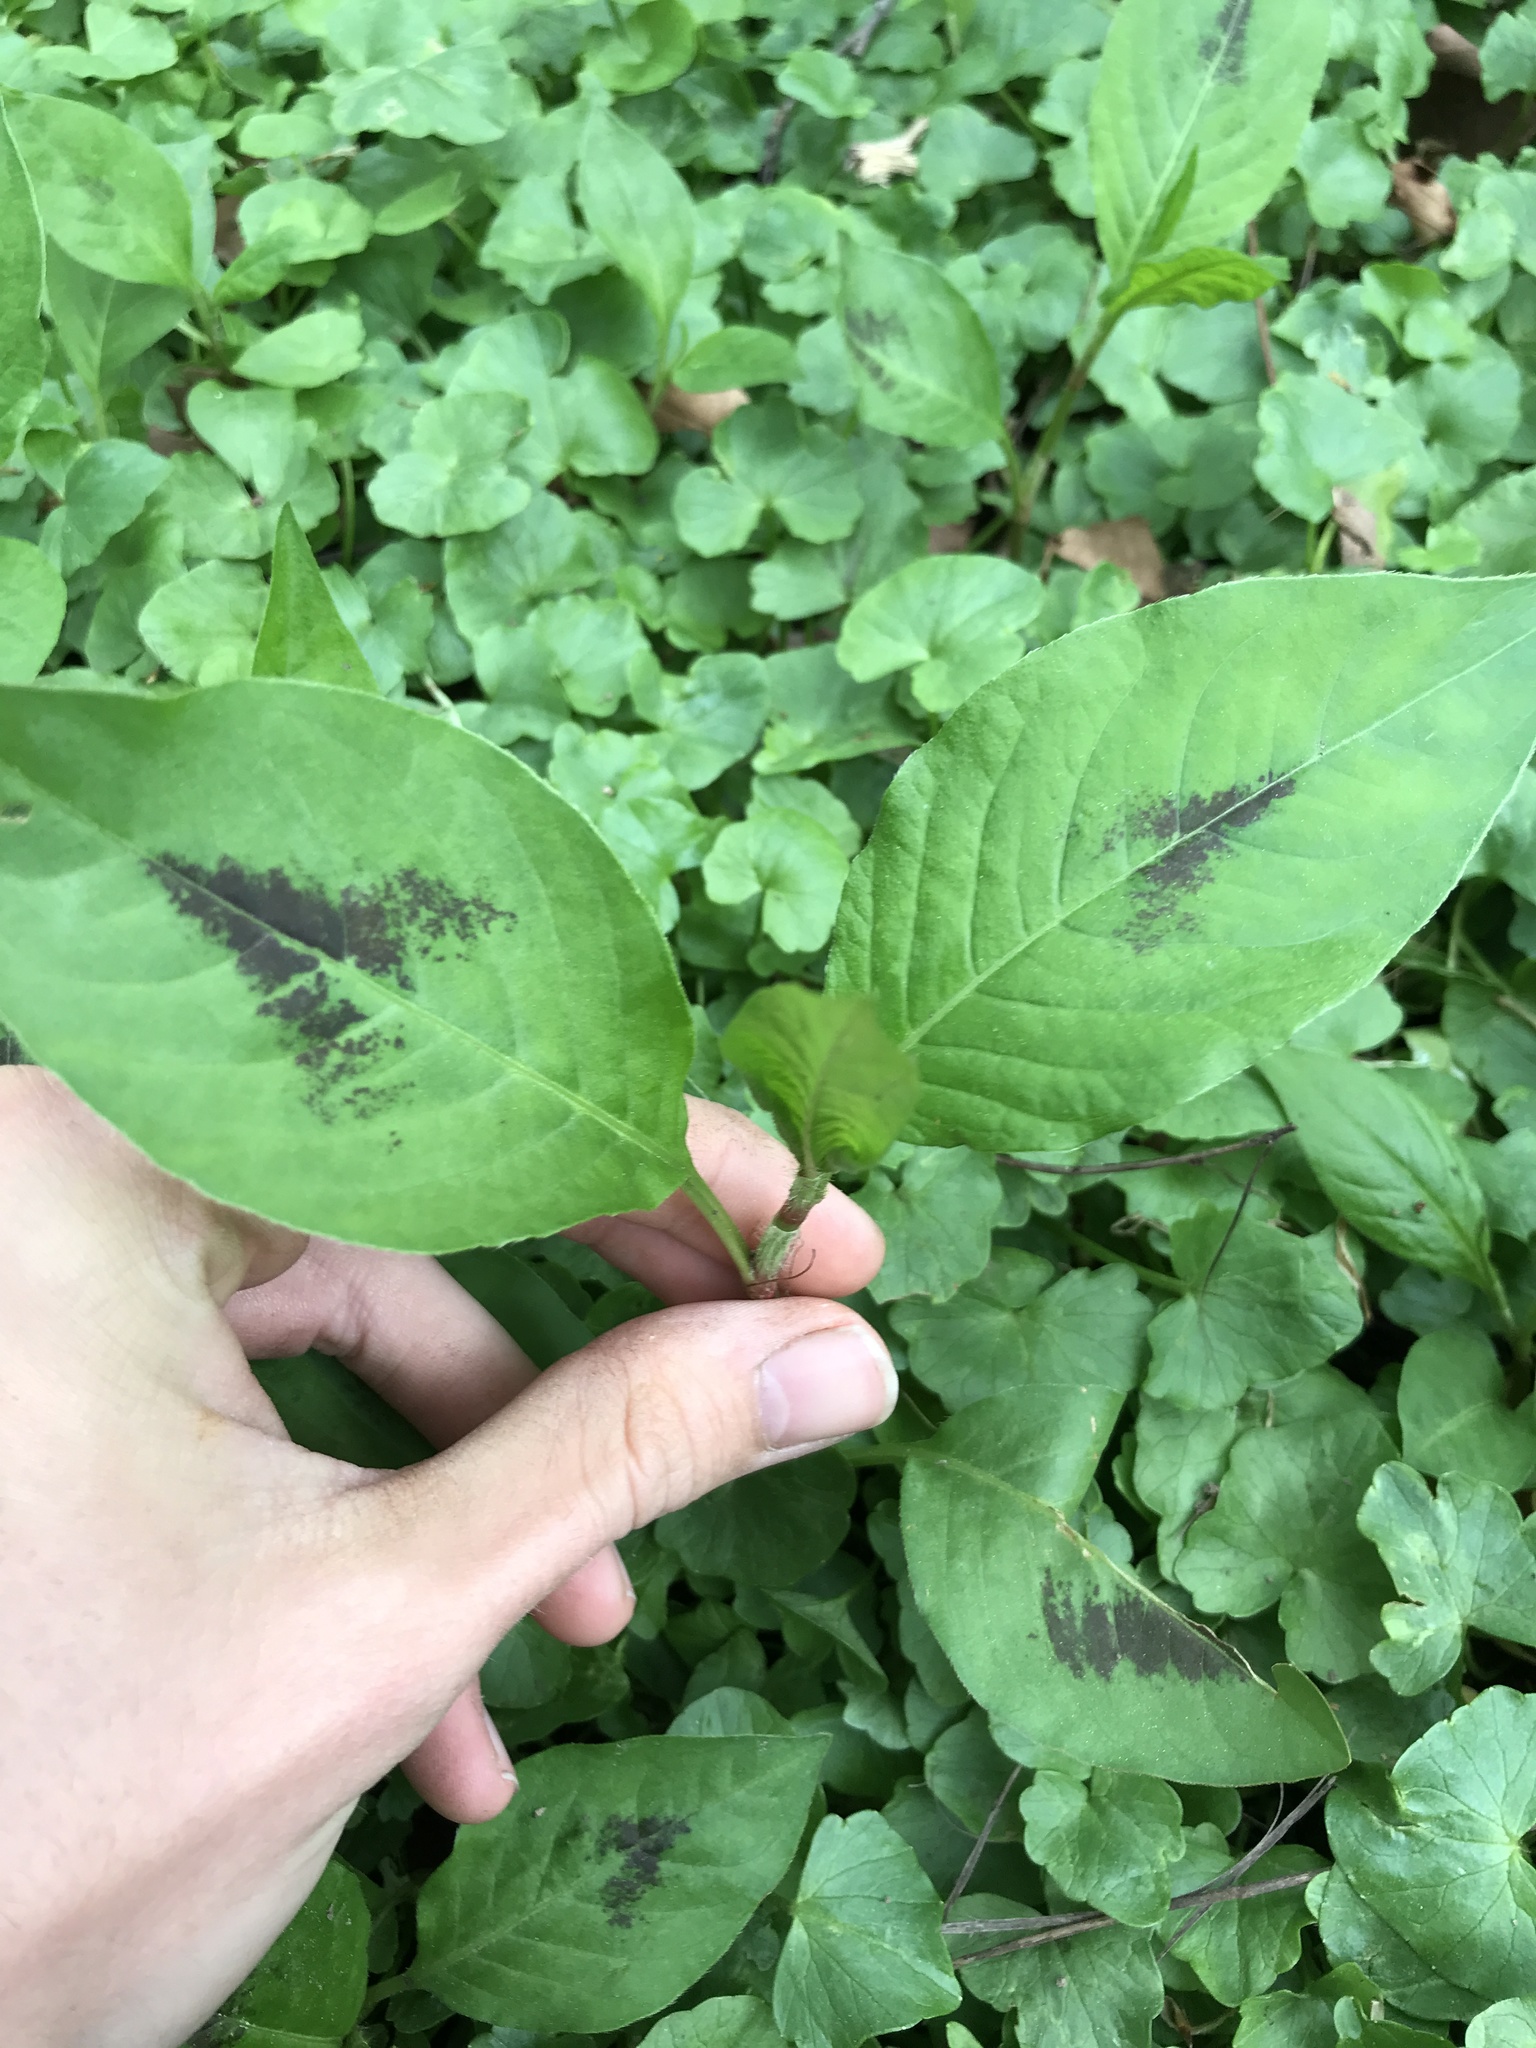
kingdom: Plantae
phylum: Tracheophyta
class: Magnoliopsida
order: Caryophyllales
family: Polygonaceae
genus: Persicaria
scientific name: Persicaria virginiana
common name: Jumpseed
